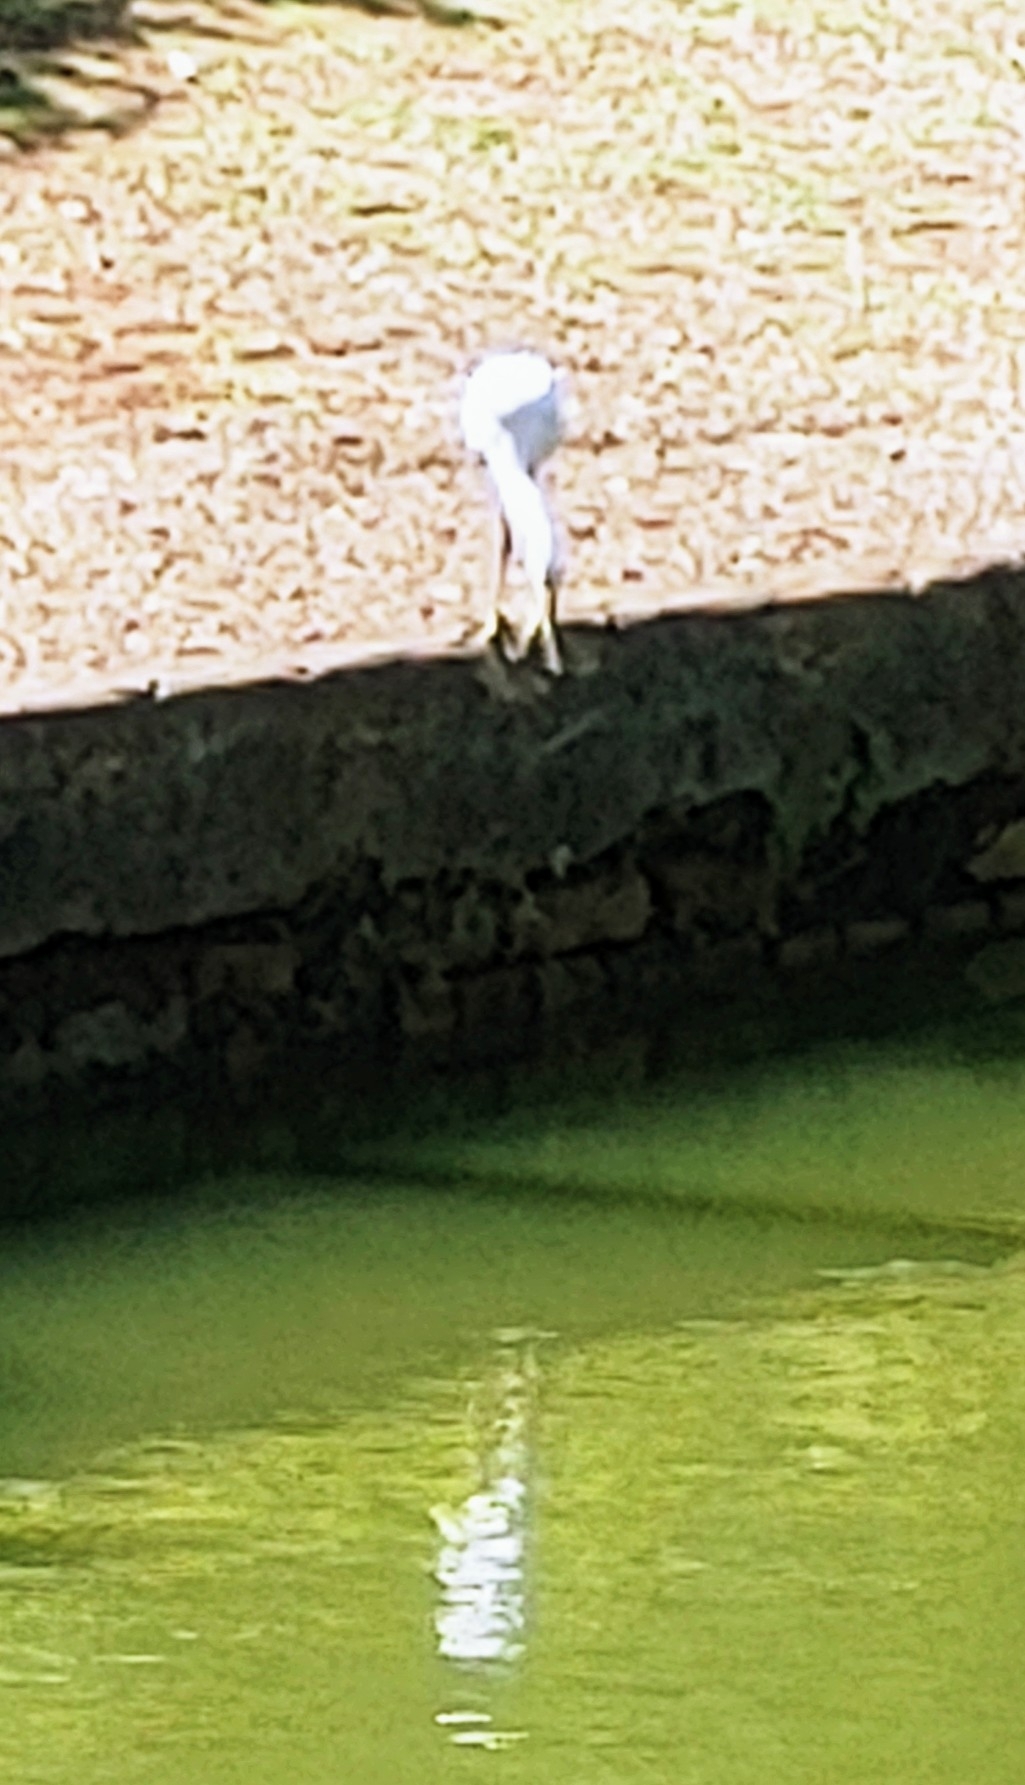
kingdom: Animalia
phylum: Chordata
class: Aves
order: Pelecaniformes
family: Ardeidae
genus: Egretta
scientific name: Egretta thula
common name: Snowy egret
